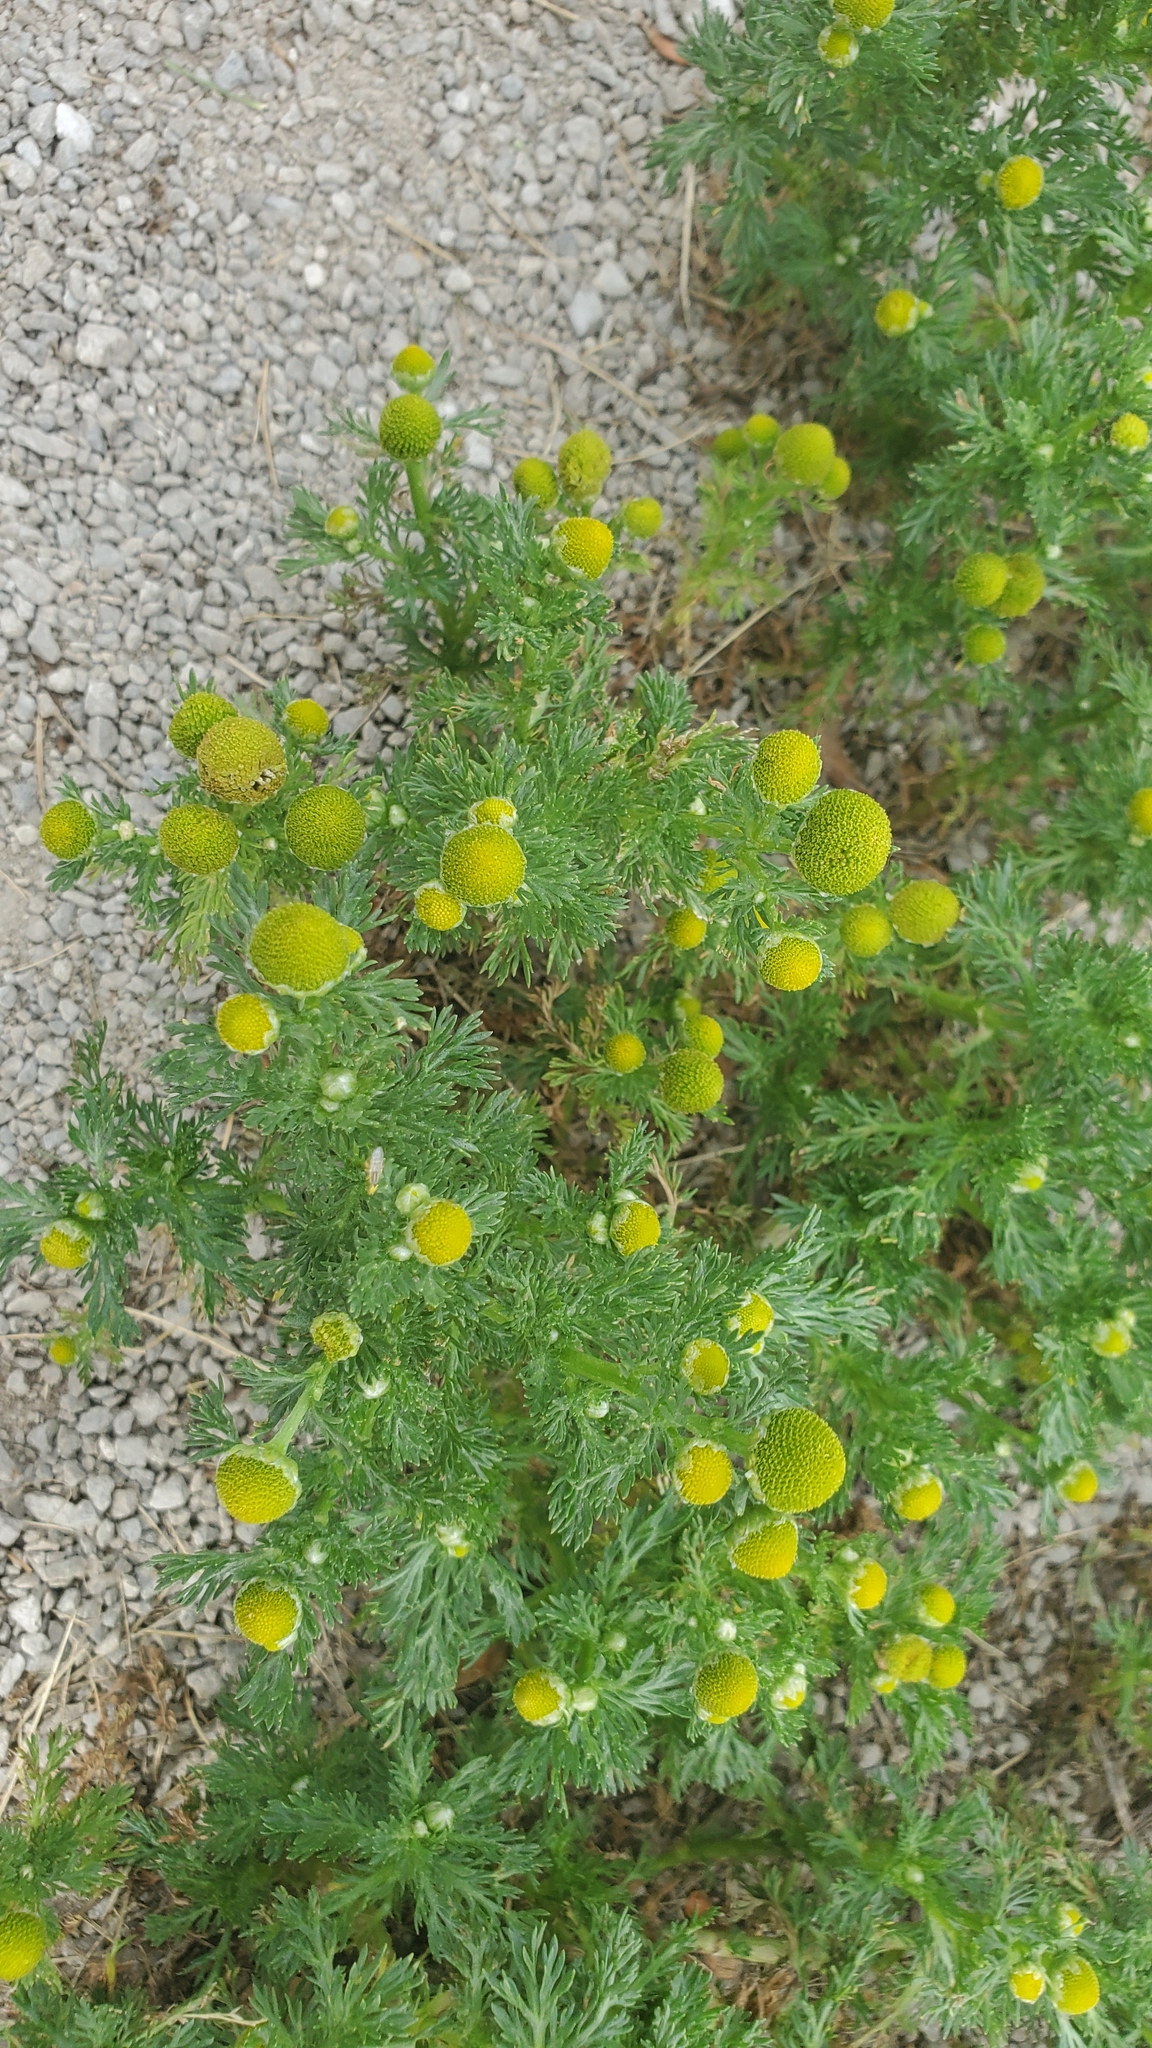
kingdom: Plantae
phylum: Tracheophyta
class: Magnoliopsida
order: Asterales
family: Asteraceae
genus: Matricaria
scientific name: Matricaria discoidea
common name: Disc mayweed
